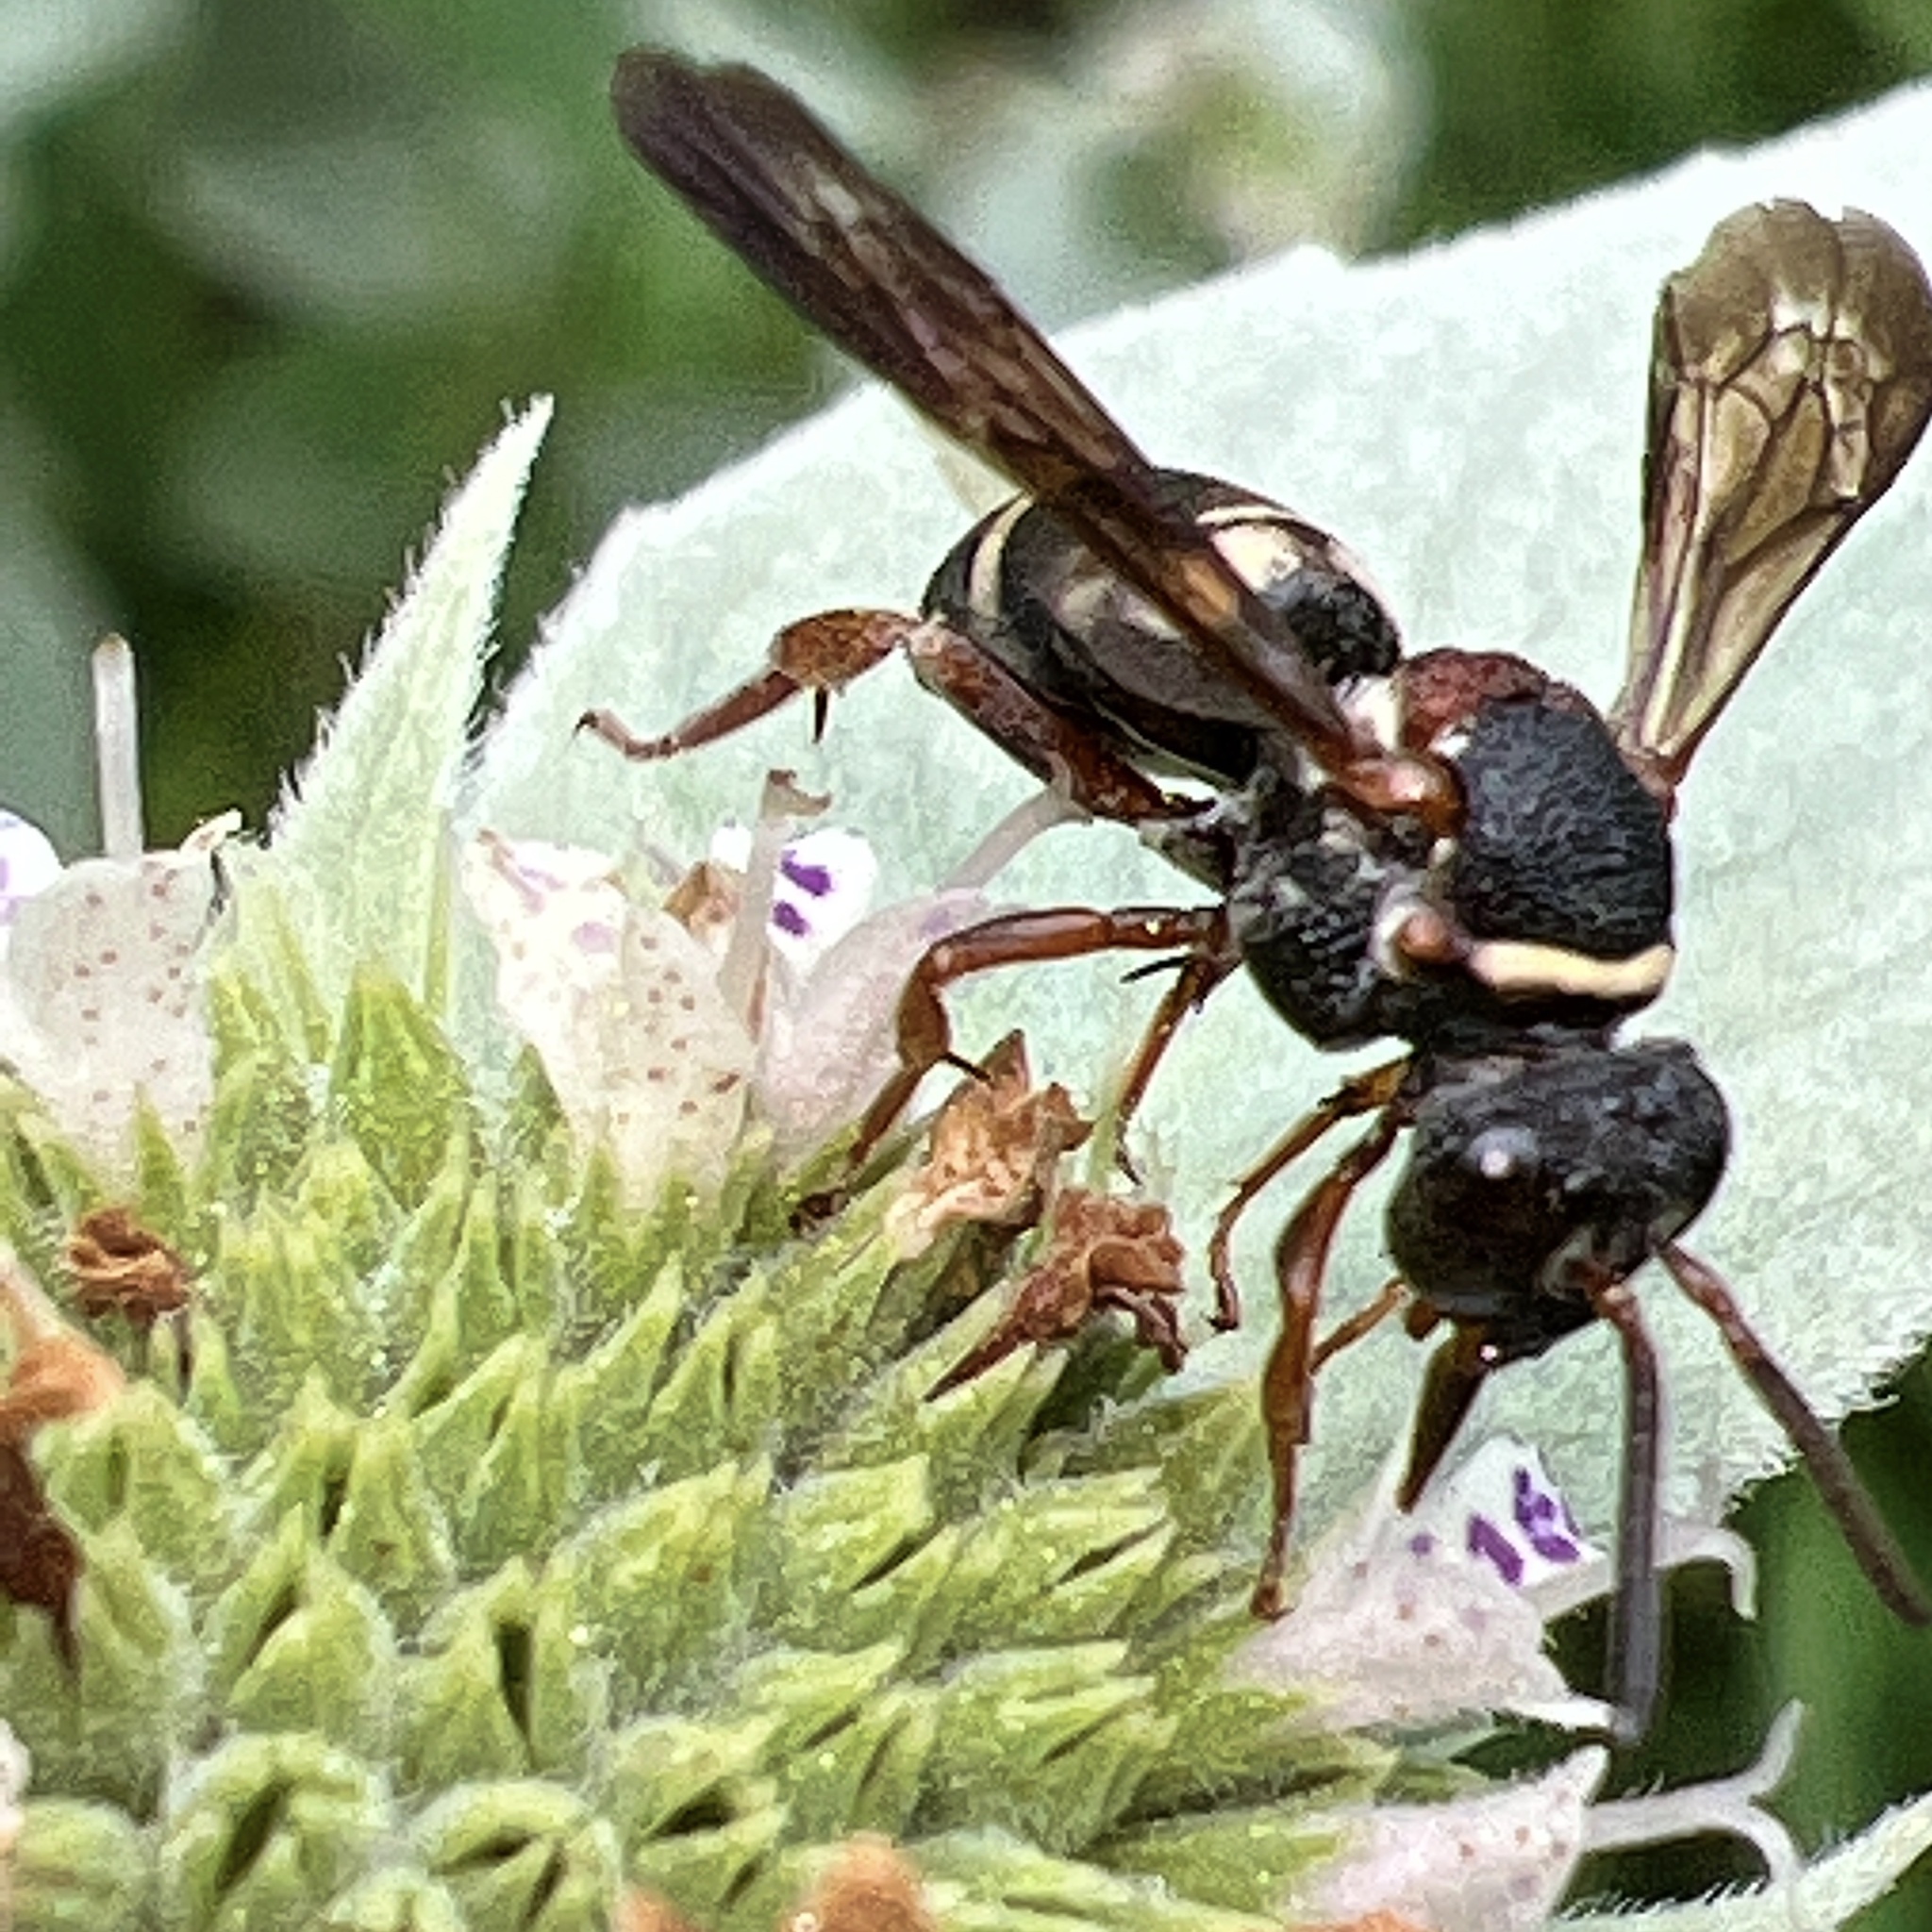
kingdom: Animalia
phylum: Arthropoda
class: Insecta
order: Hymenoptera
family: Apidae
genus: Epeolus
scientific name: Epeolus bifasciatus
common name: Two-banded cellophane-cuckoo
